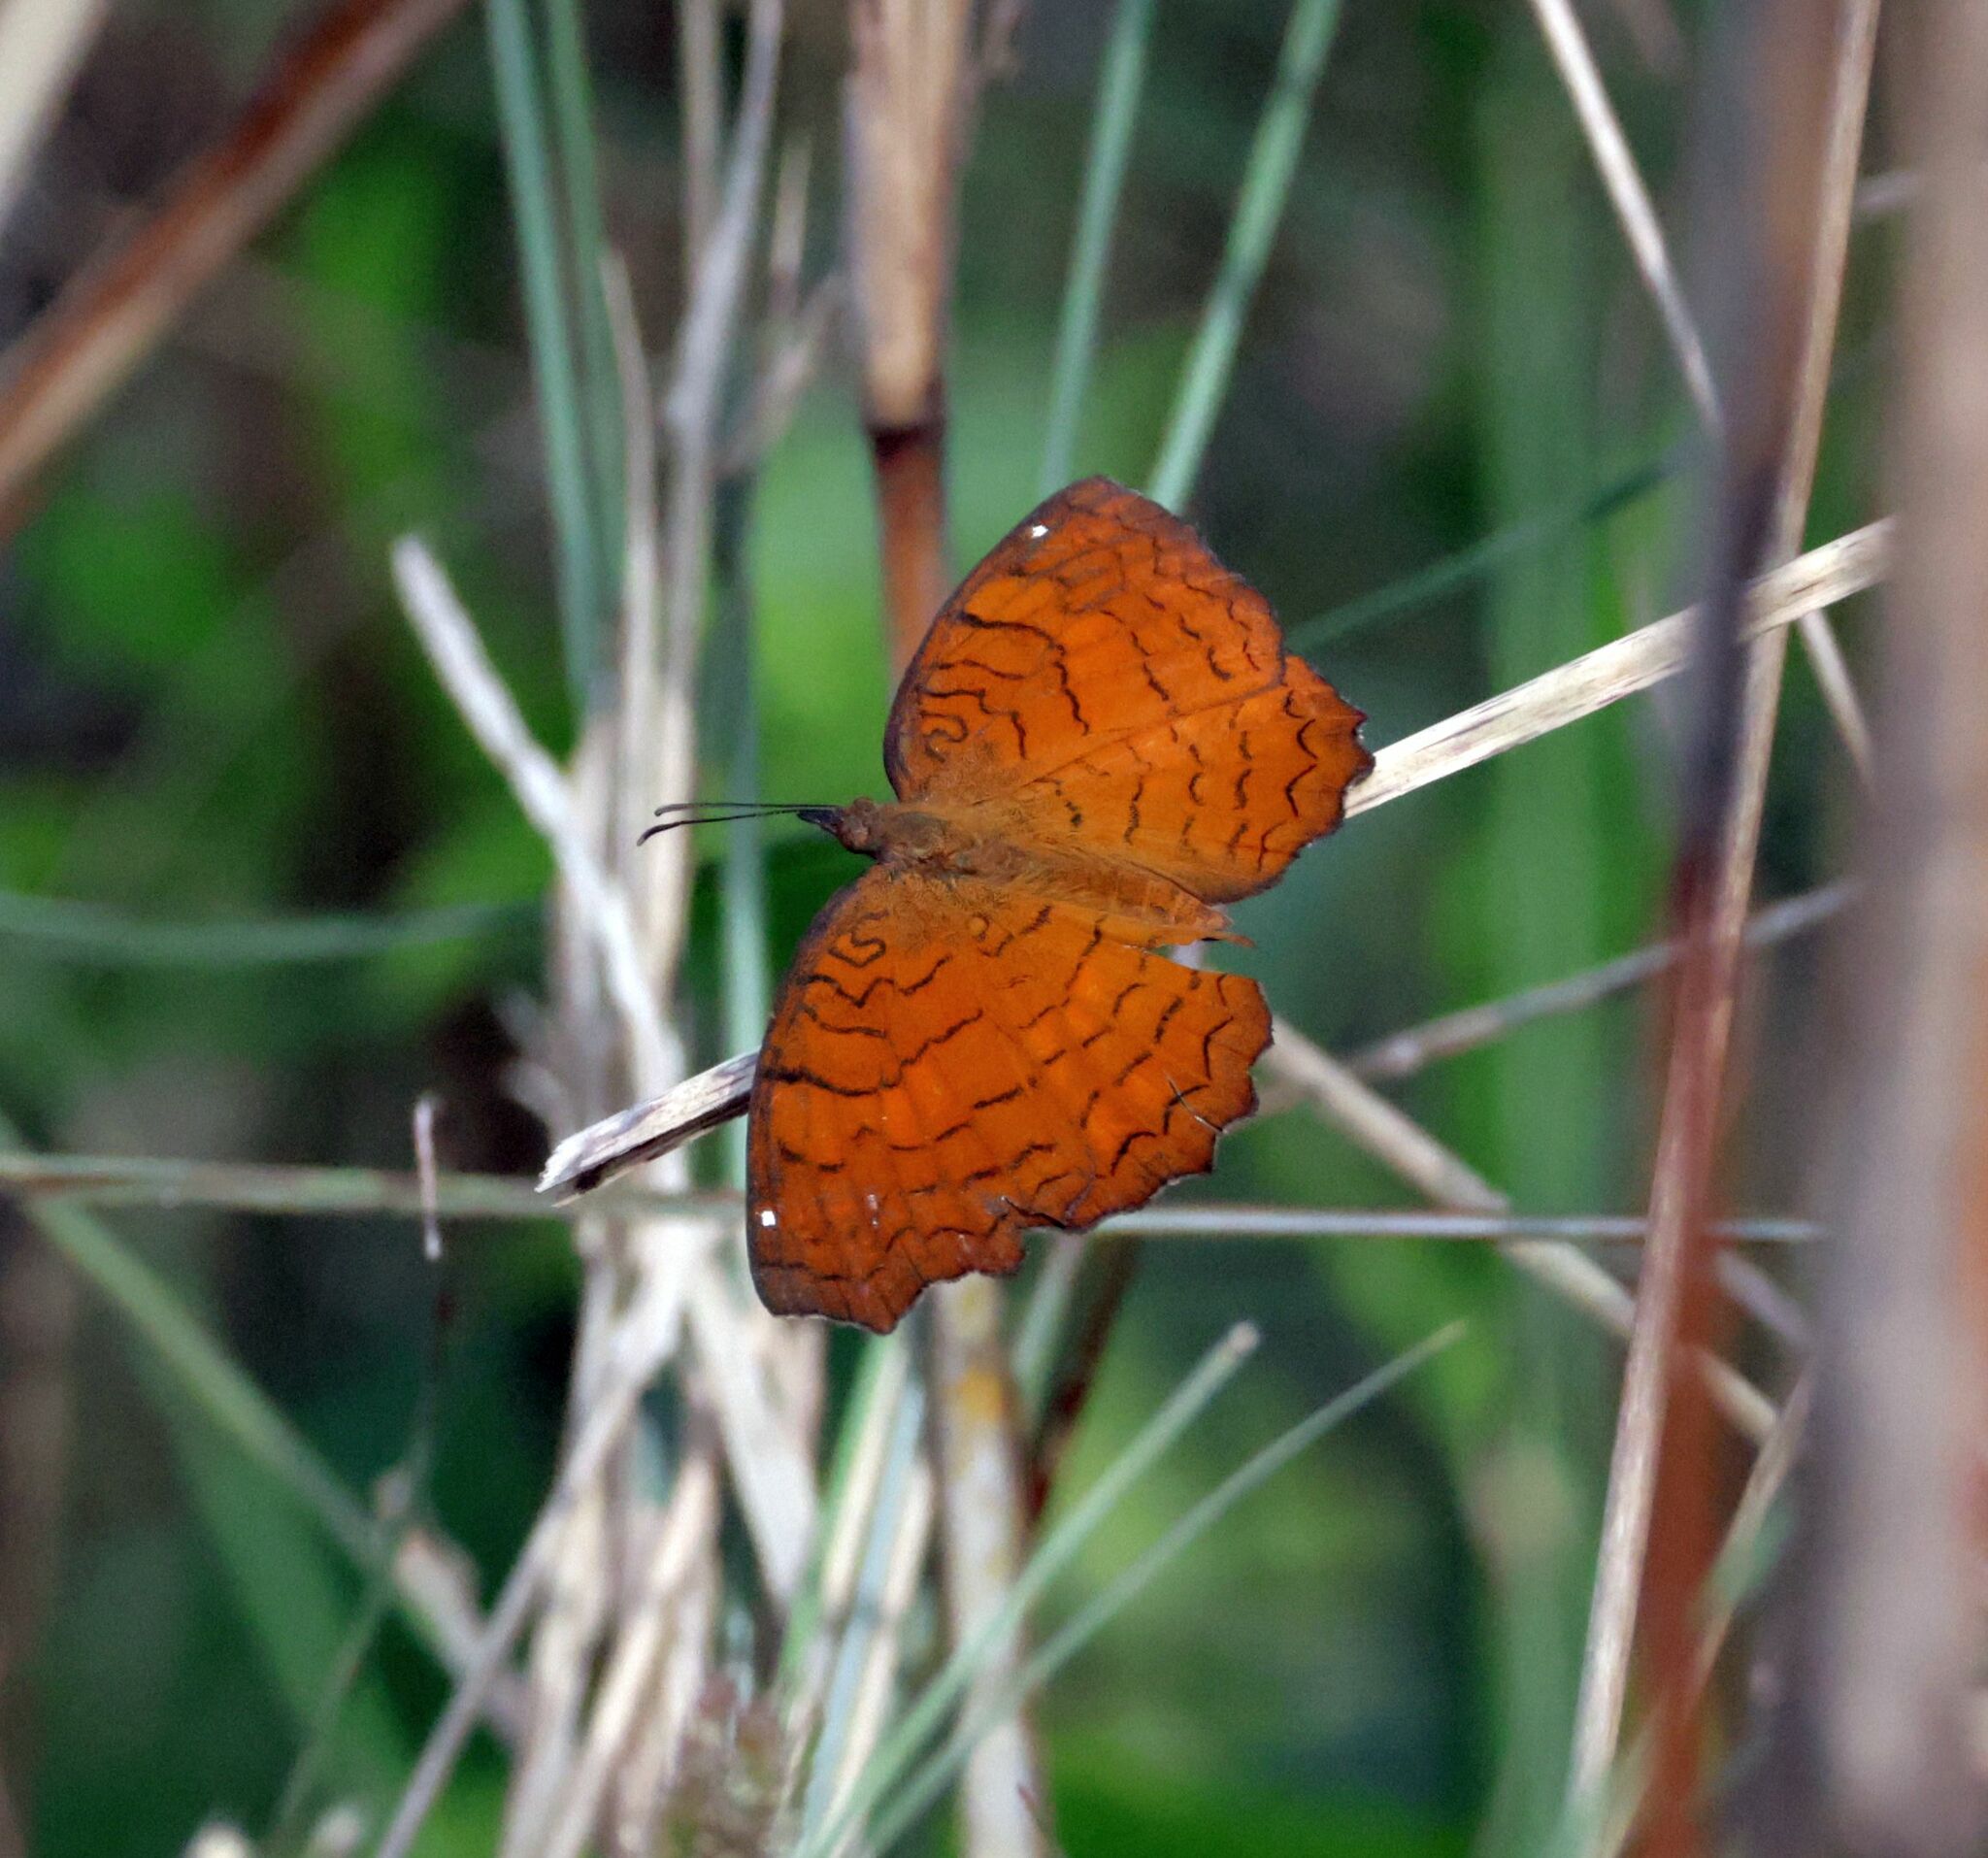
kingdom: Animalia
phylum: Arthropoda
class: Insecta
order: Lepidoptera
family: Nymphalidae
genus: Ariadne
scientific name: Ariadne ariadne
